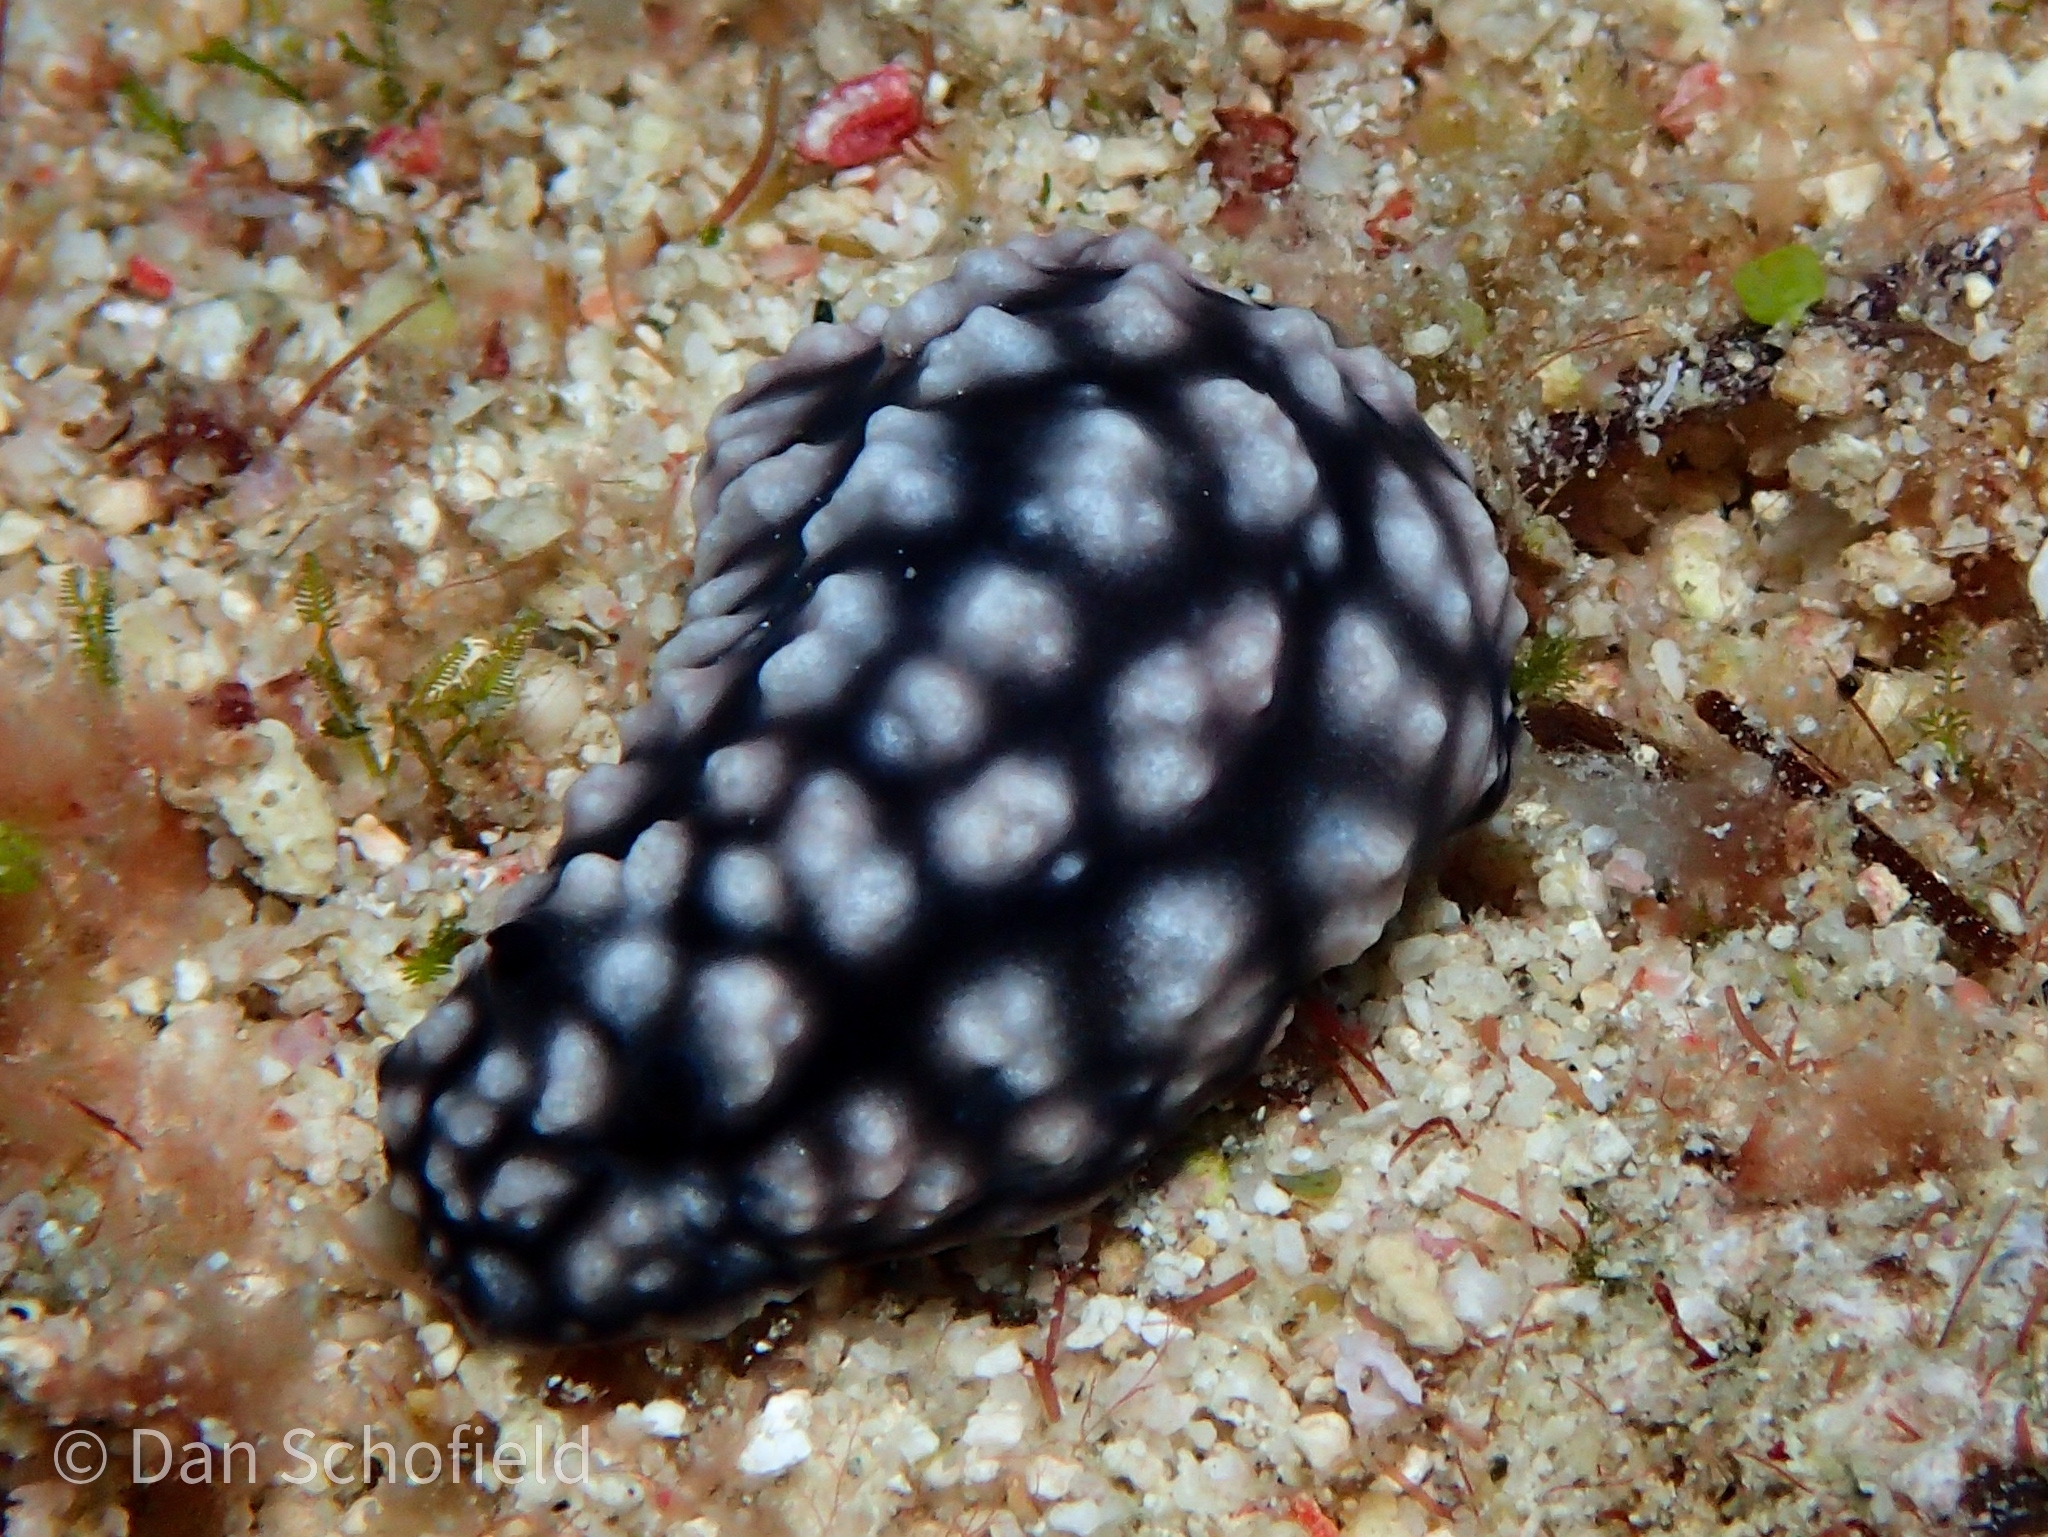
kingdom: Animalia
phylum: Mollusca
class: Gastropoda
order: Nudibranchia
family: Phyllidiidae
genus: Phyllidiella
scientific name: Phyllidiella pustulosa
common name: Pustular phyllidia
